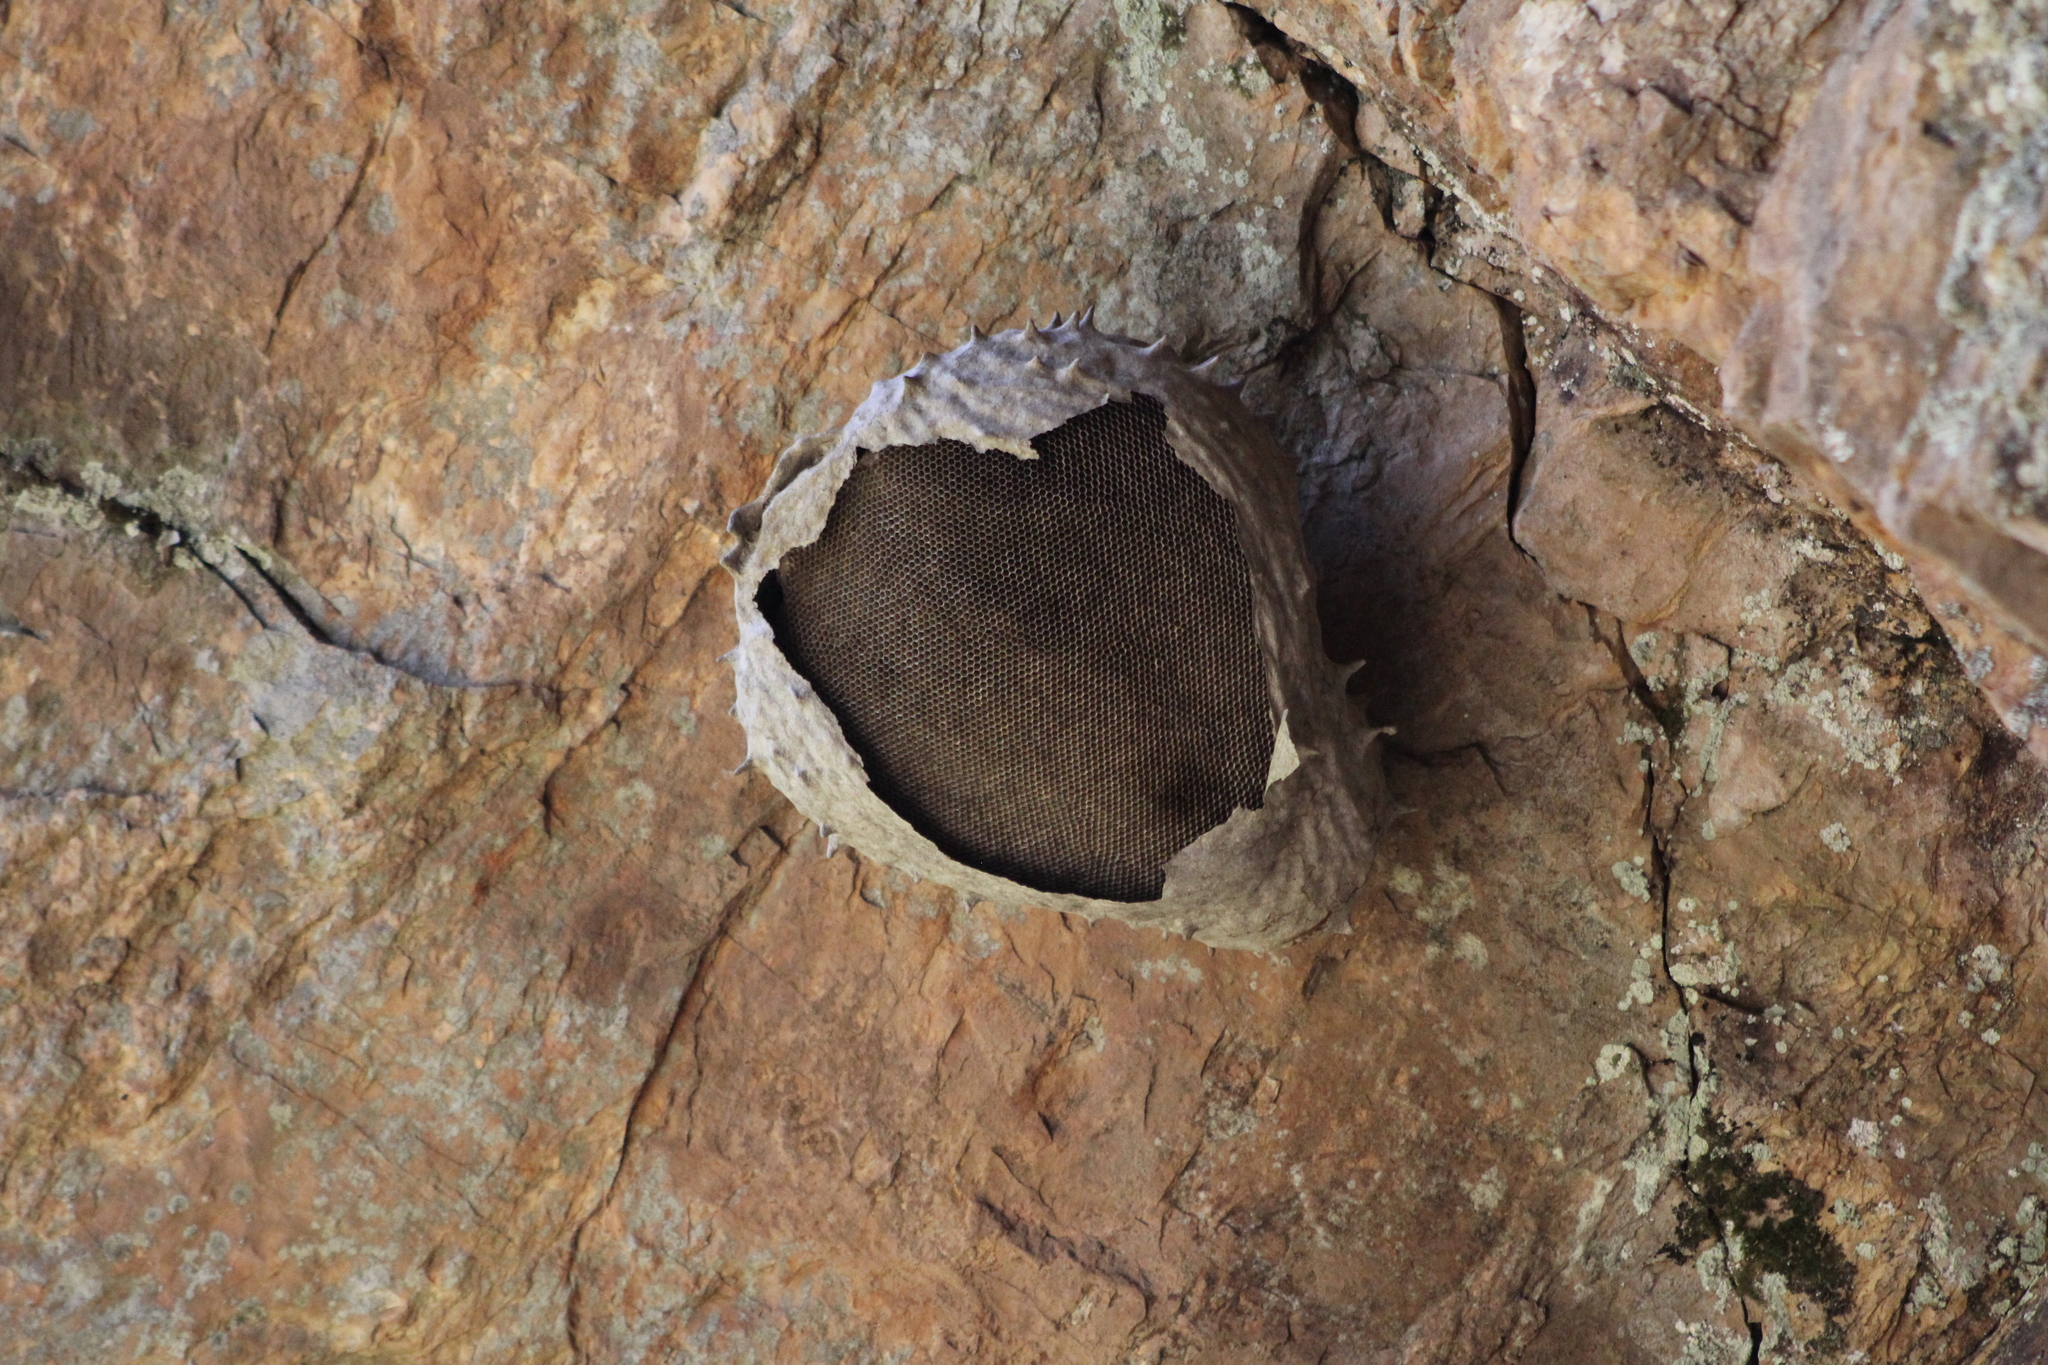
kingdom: Animalia
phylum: Arthropoda
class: Insecta
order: Hymenoptera
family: Eumenidae
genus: Polybia
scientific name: Polybia scutellaris
